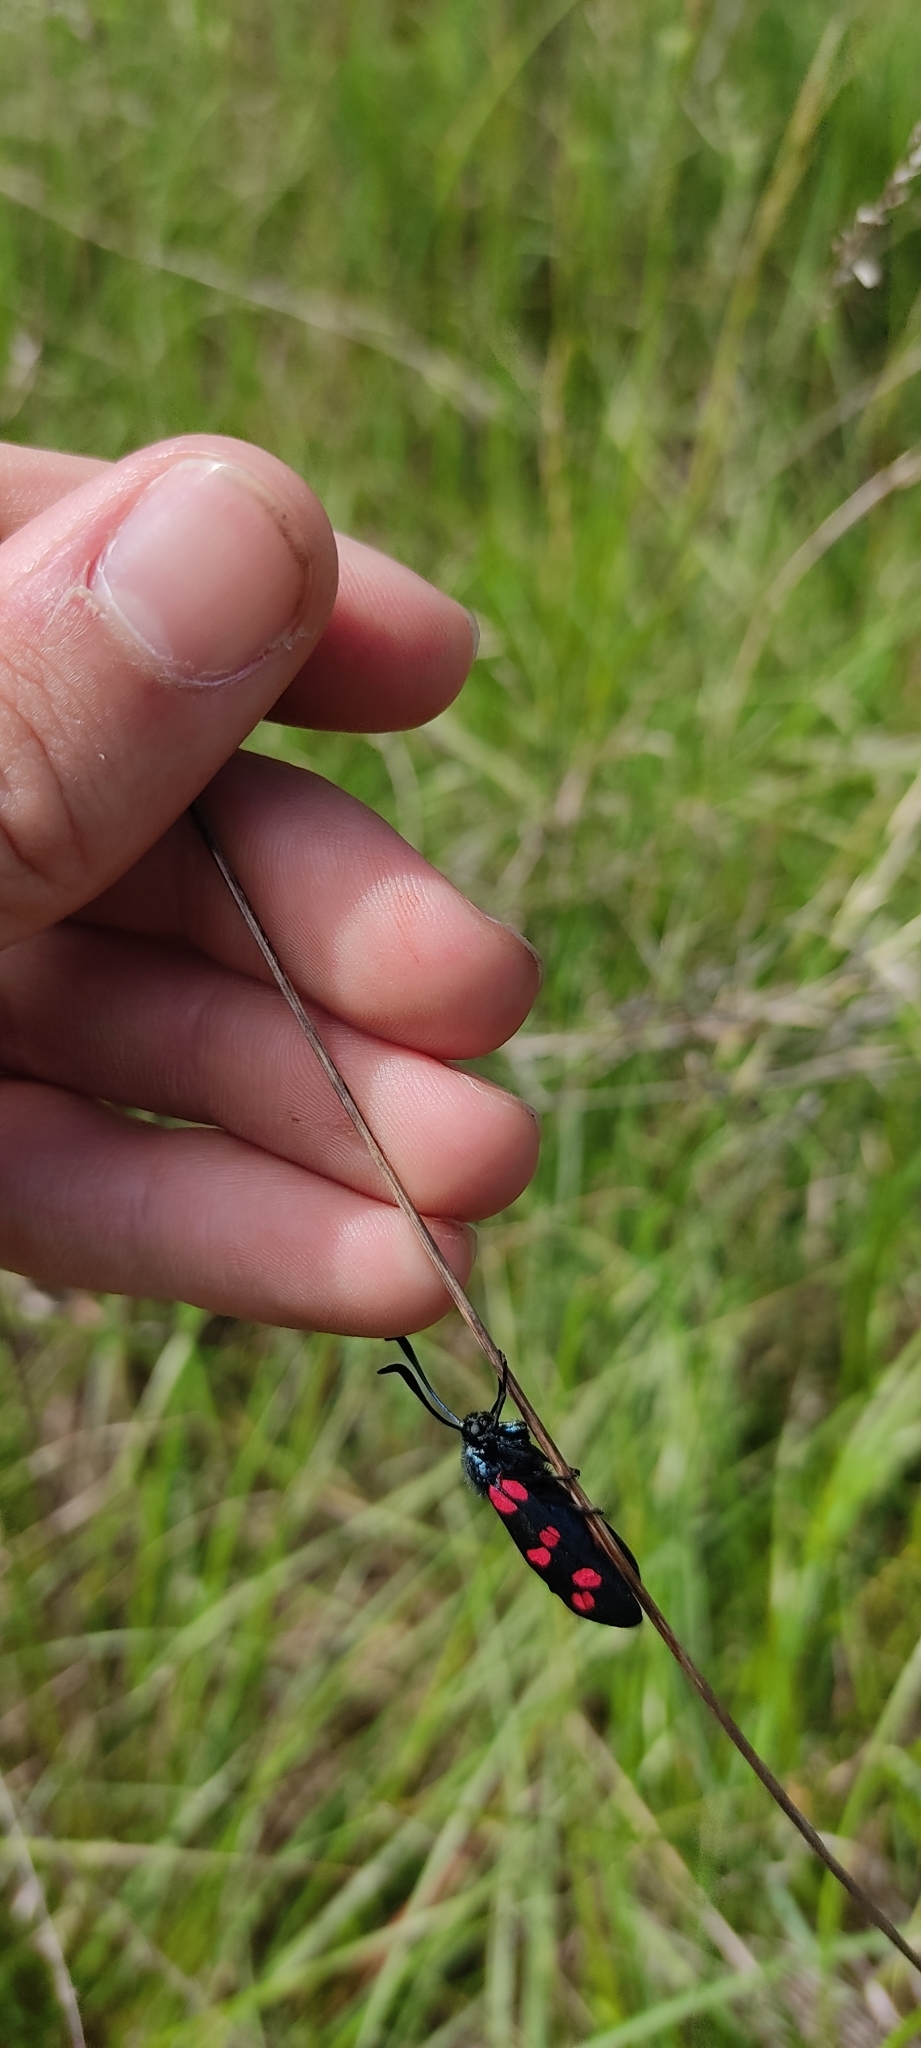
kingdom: Animalia
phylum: Arthropoda
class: Insecta
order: Lepidoptera
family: Zygaenidae
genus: Zygaena
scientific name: Zygaena filipendulae
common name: Six-spot burnet
